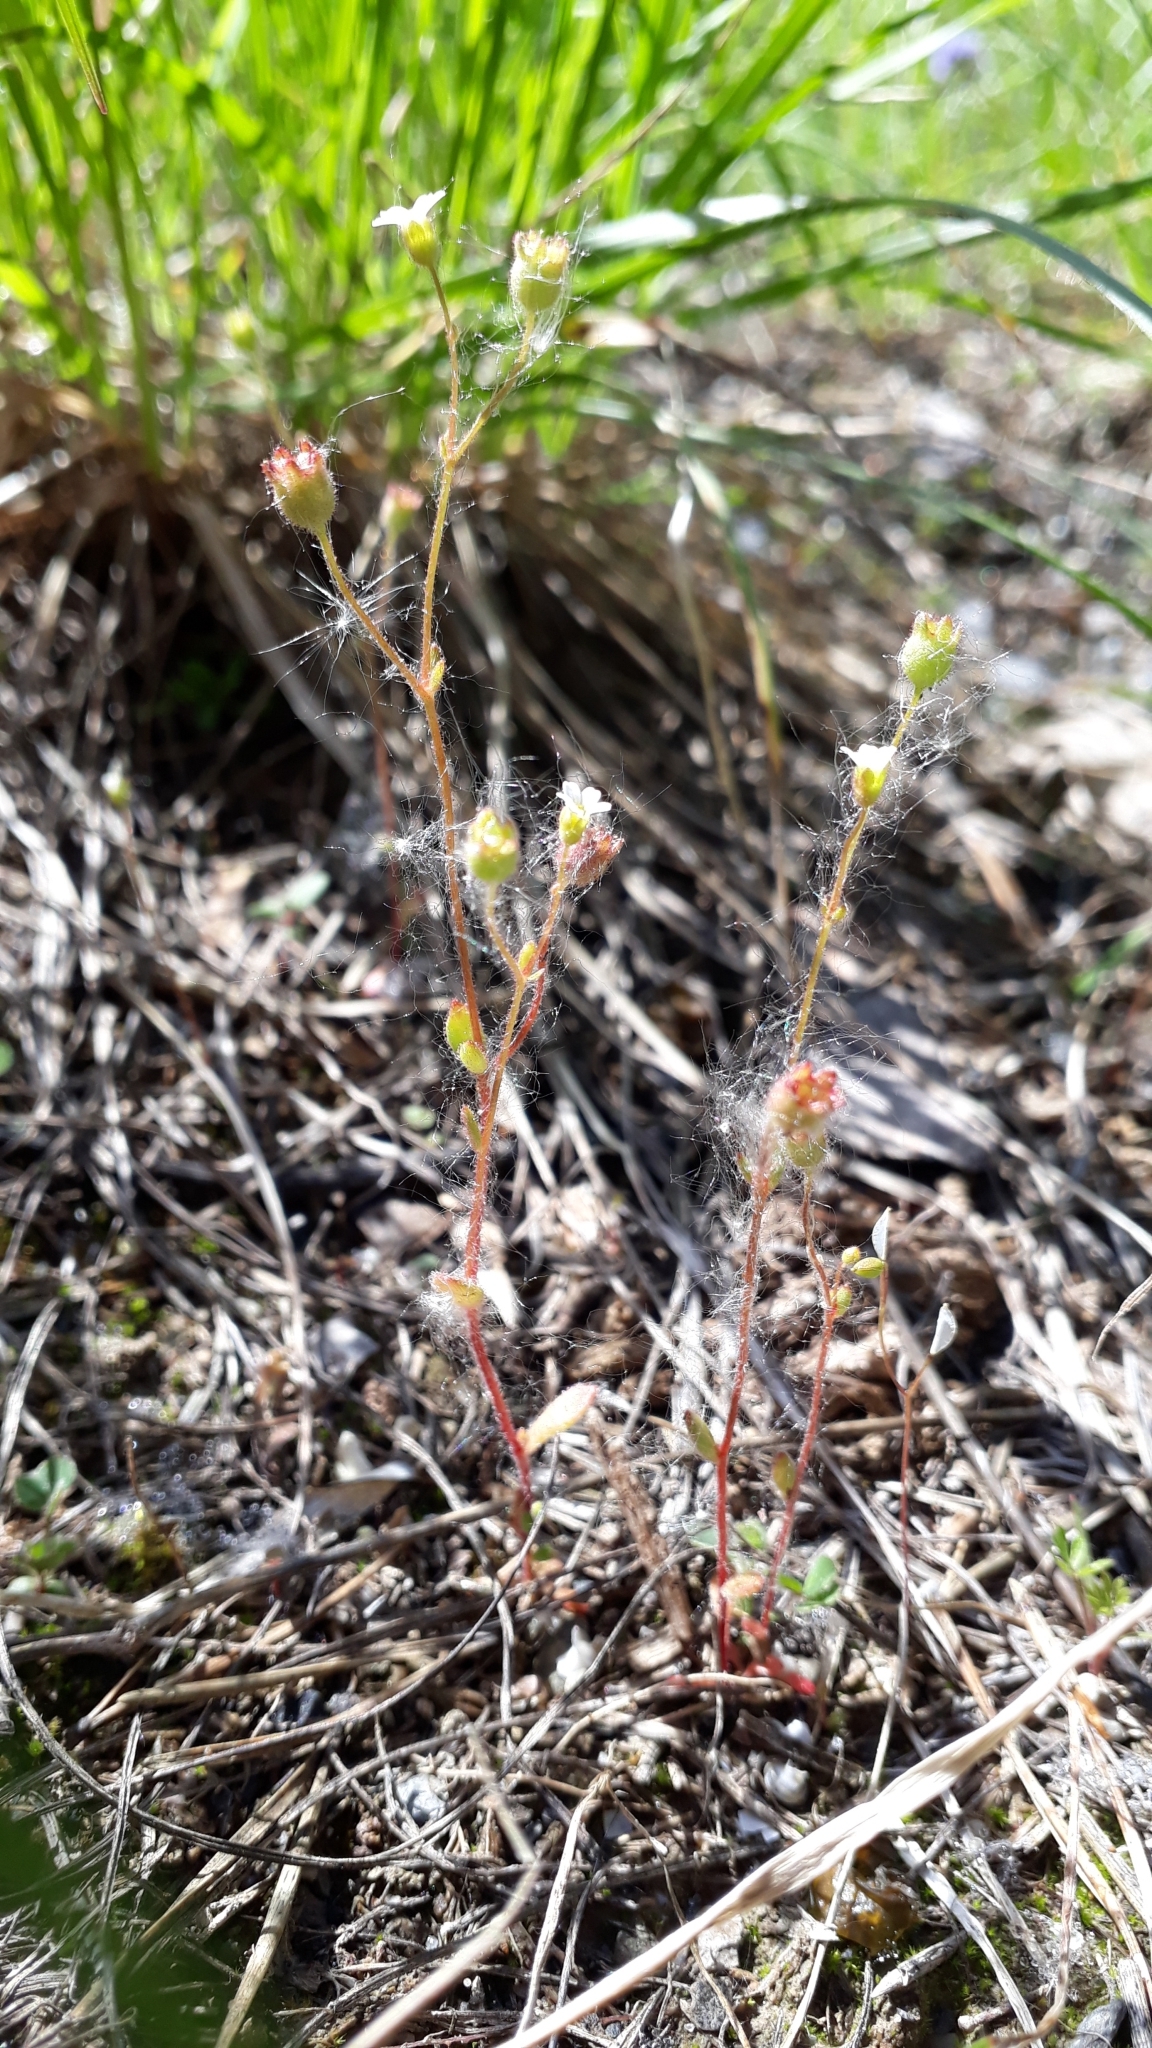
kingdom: Plantae
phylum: Tracheophyta
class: Magnoliopsida
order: Saxifragales
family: Saxifragaceae
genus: Saxifraga
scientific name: Saxifraga tridactylites
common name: Rue-leaved saxifrage
